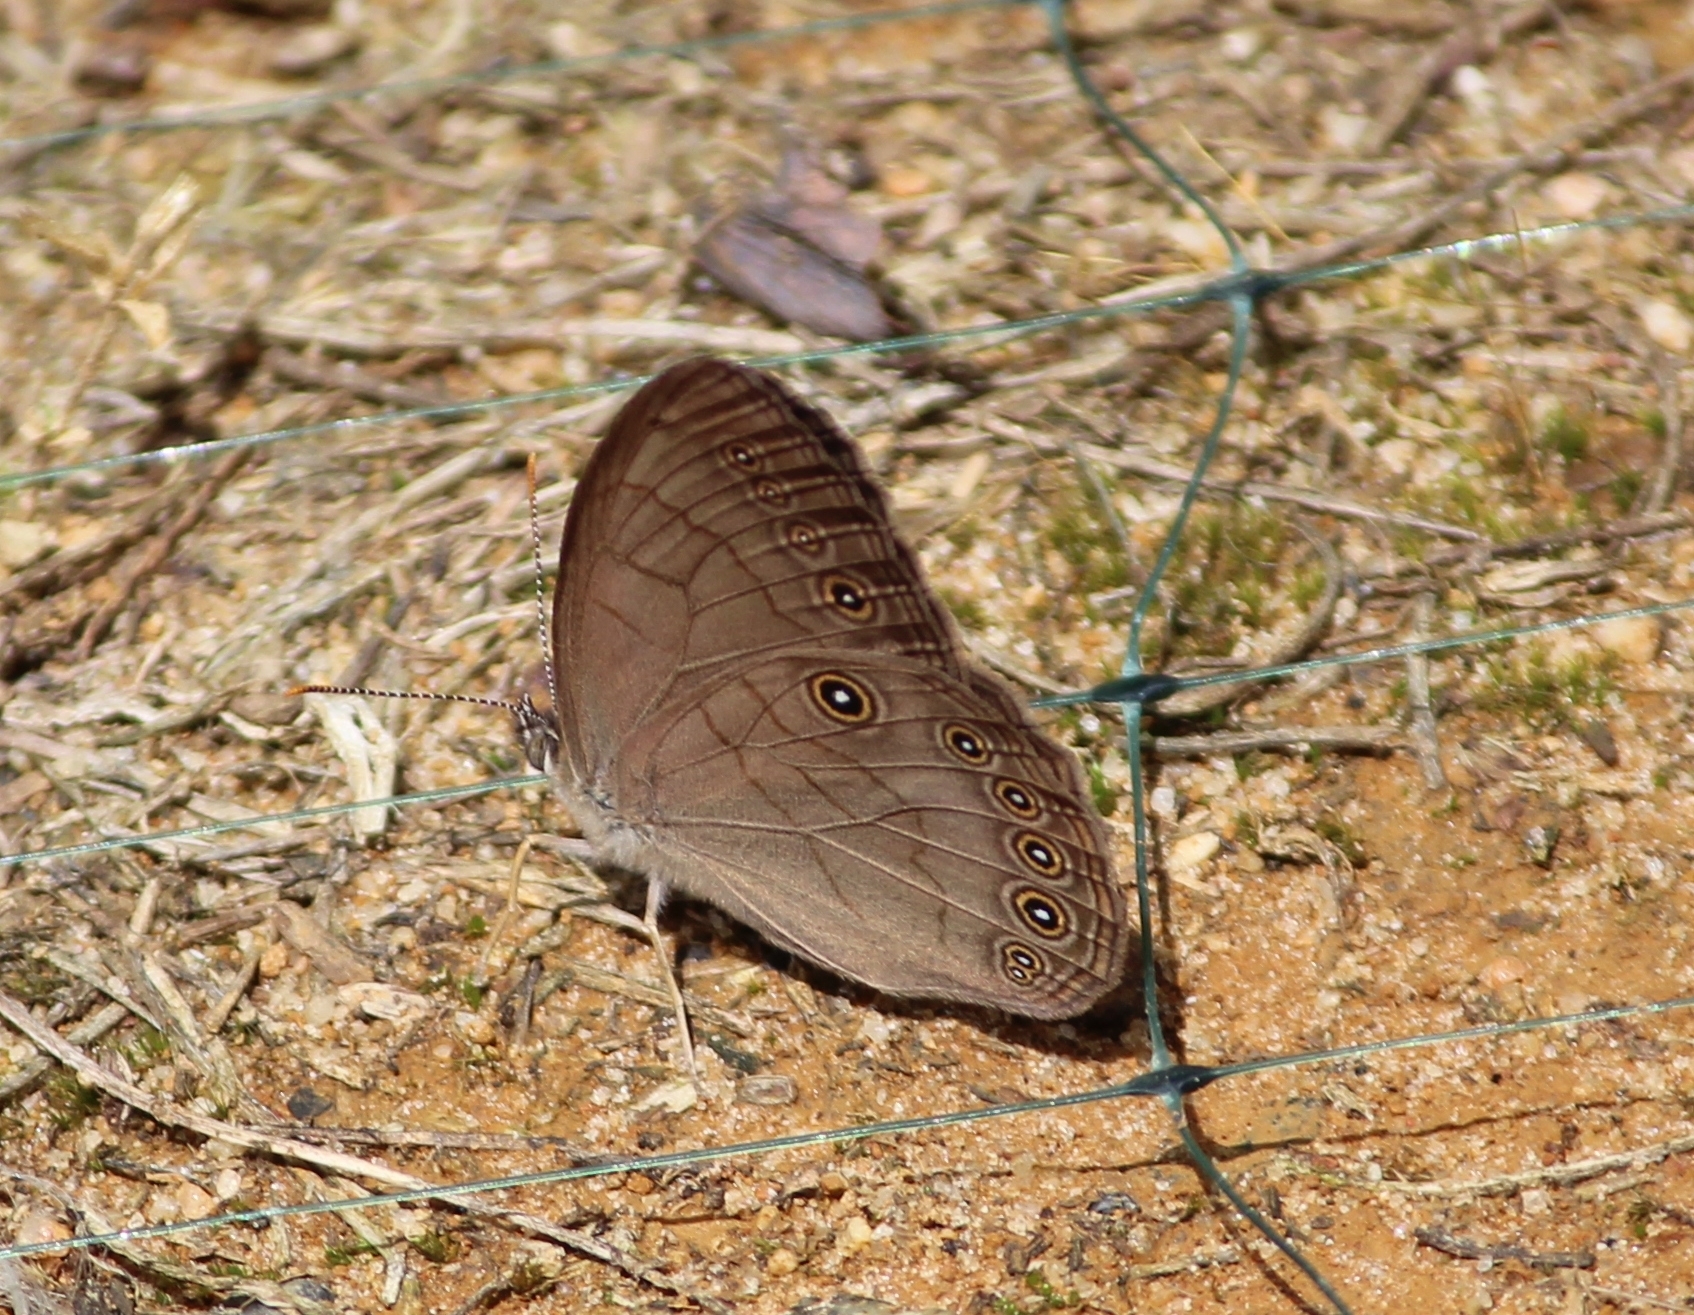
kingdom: Animalia
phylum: Arthropoda
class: Insecta
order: Lepidoptera
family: Nymphalidae
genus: Lethe
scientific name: Lethe eurydice
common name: Eyed brown
